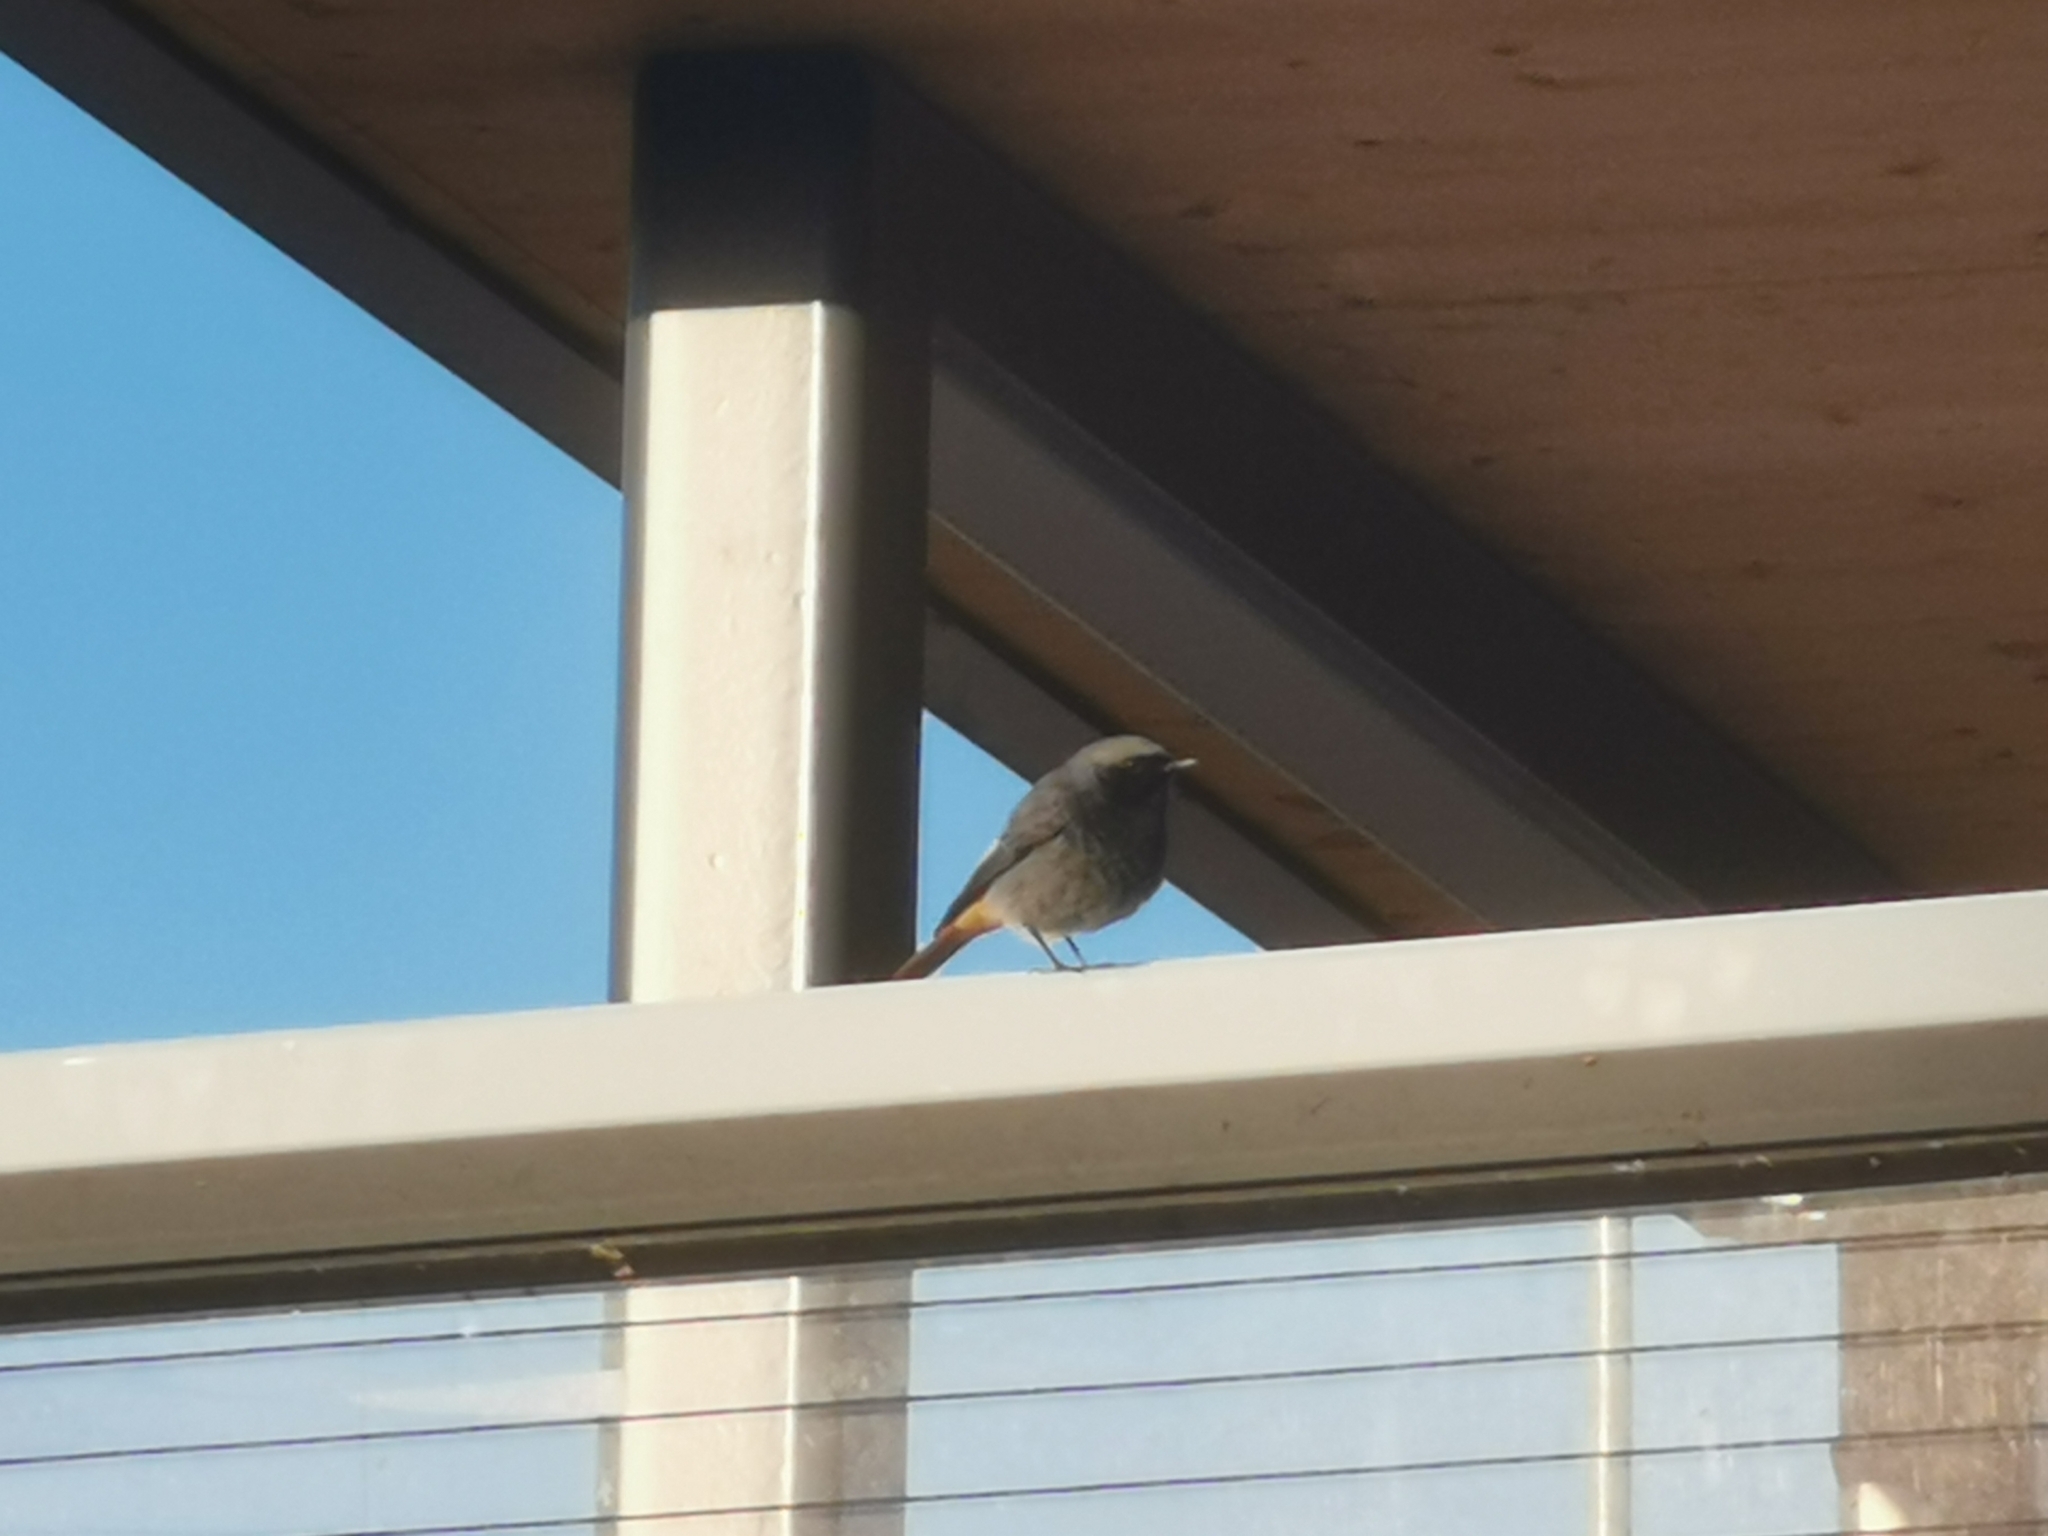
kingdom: Animalia
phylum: Chordata
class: Aves
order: Passeriformes
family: Muscicapidae
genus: Phoenicurus
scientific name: Phoenicurus ochruros
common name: Black redstart
